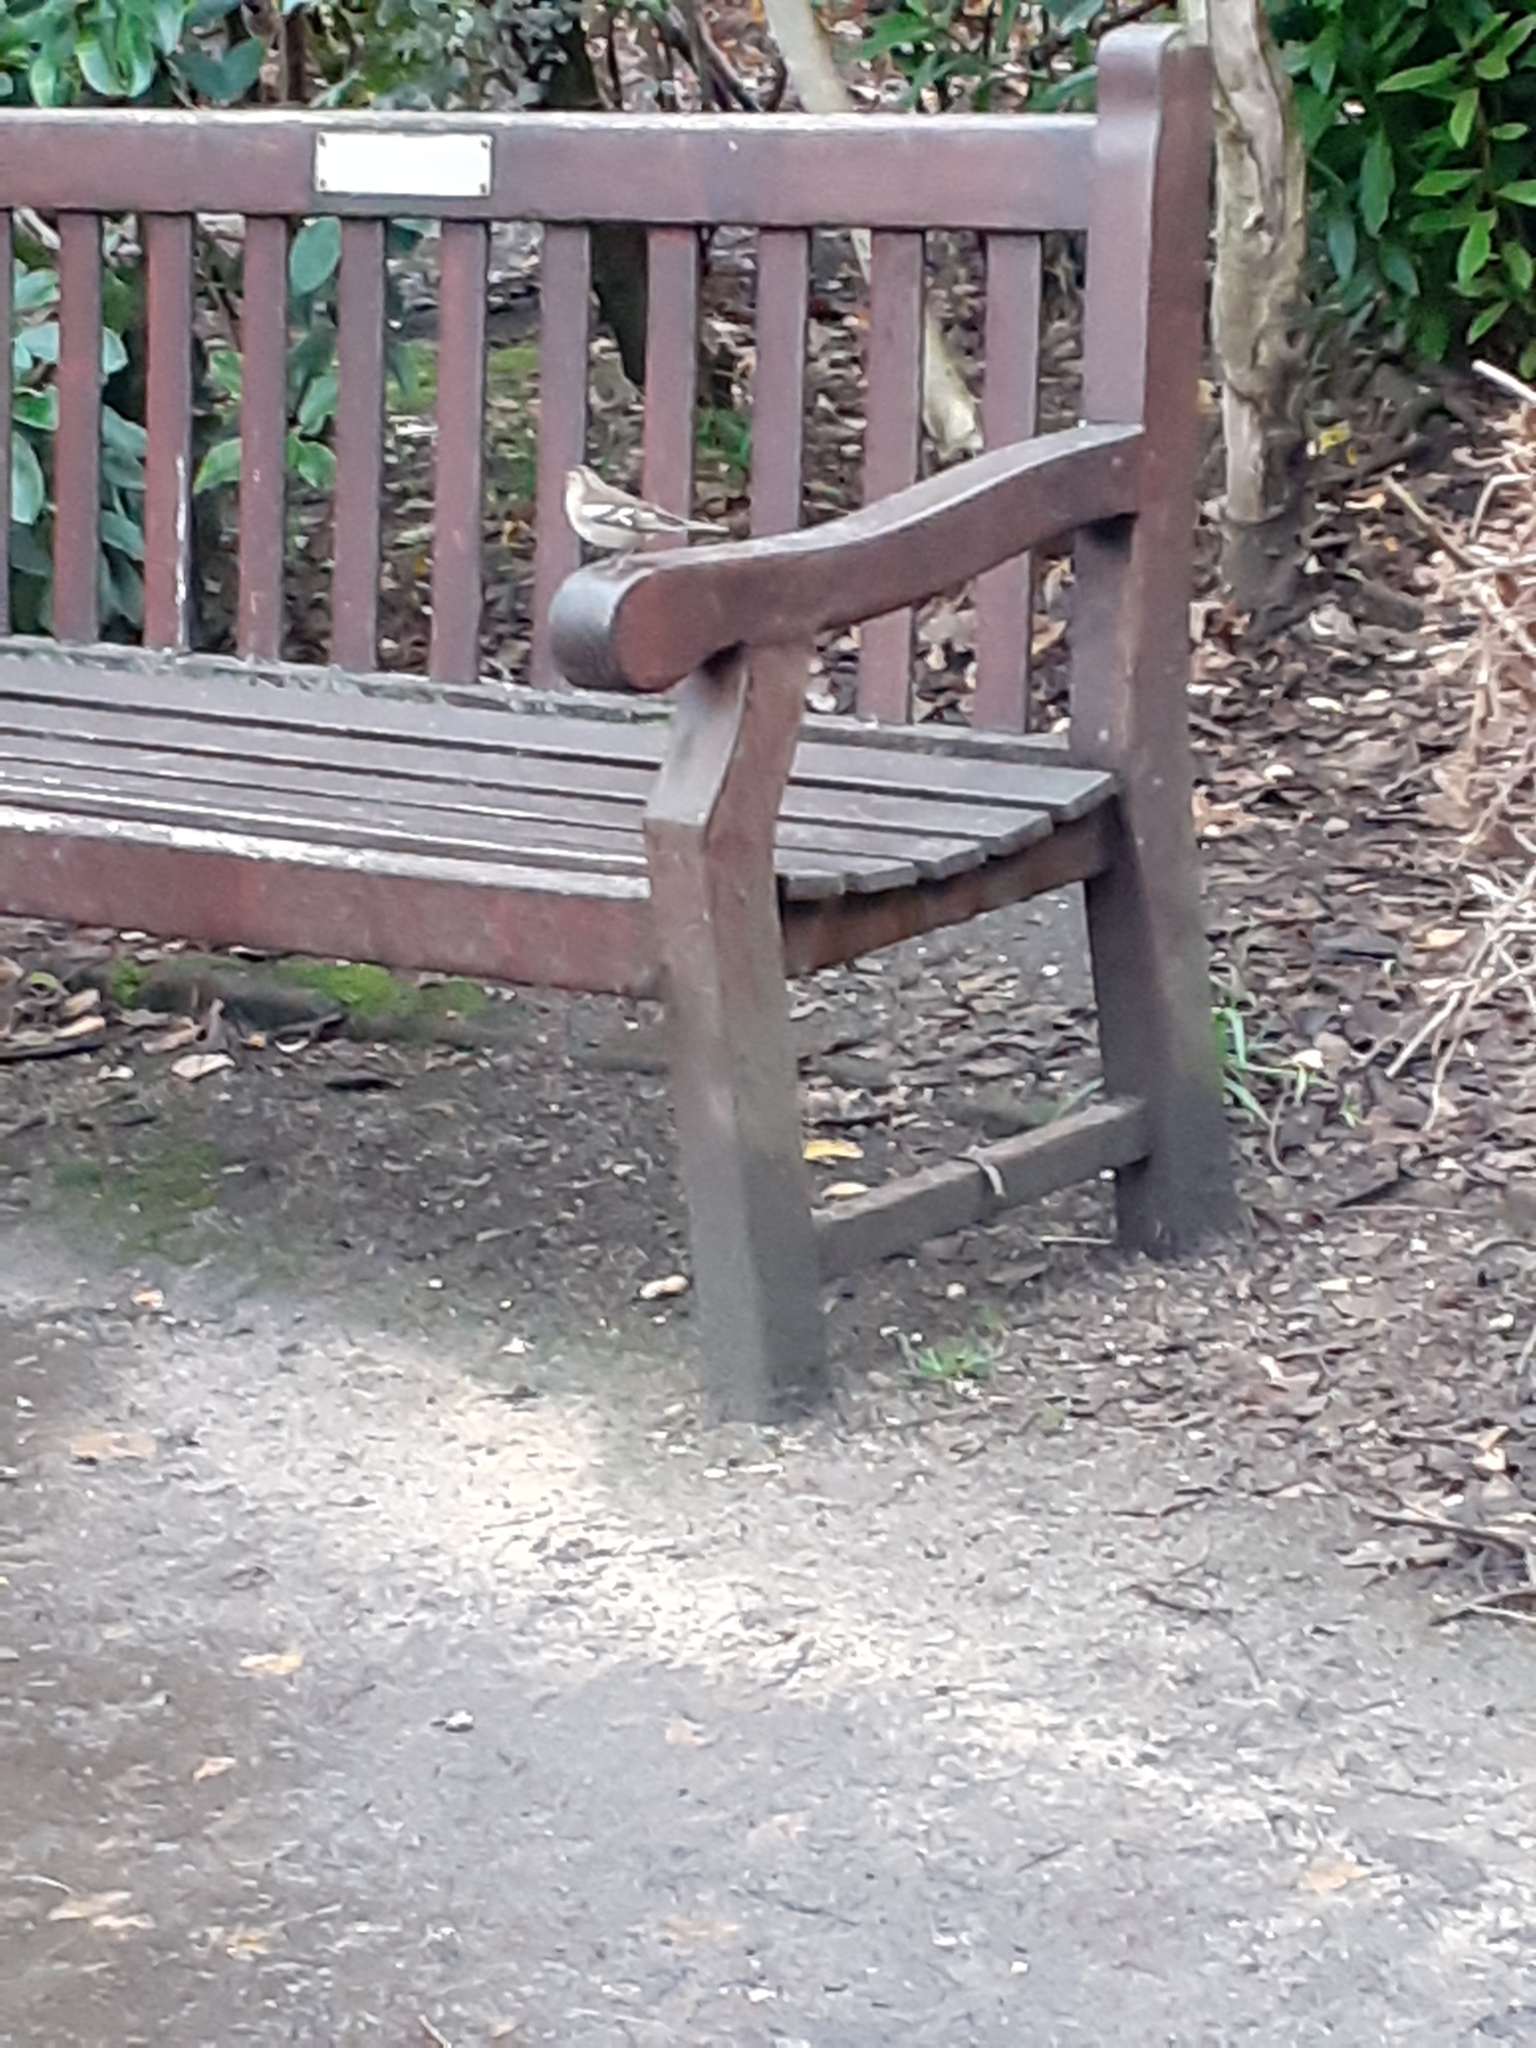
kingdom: Animalia
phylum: Chordata
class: Aves
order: Passeriformes
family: Fringillidae
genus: Fringilla
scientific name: Fringilla coelebs
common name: Common chaffinch
